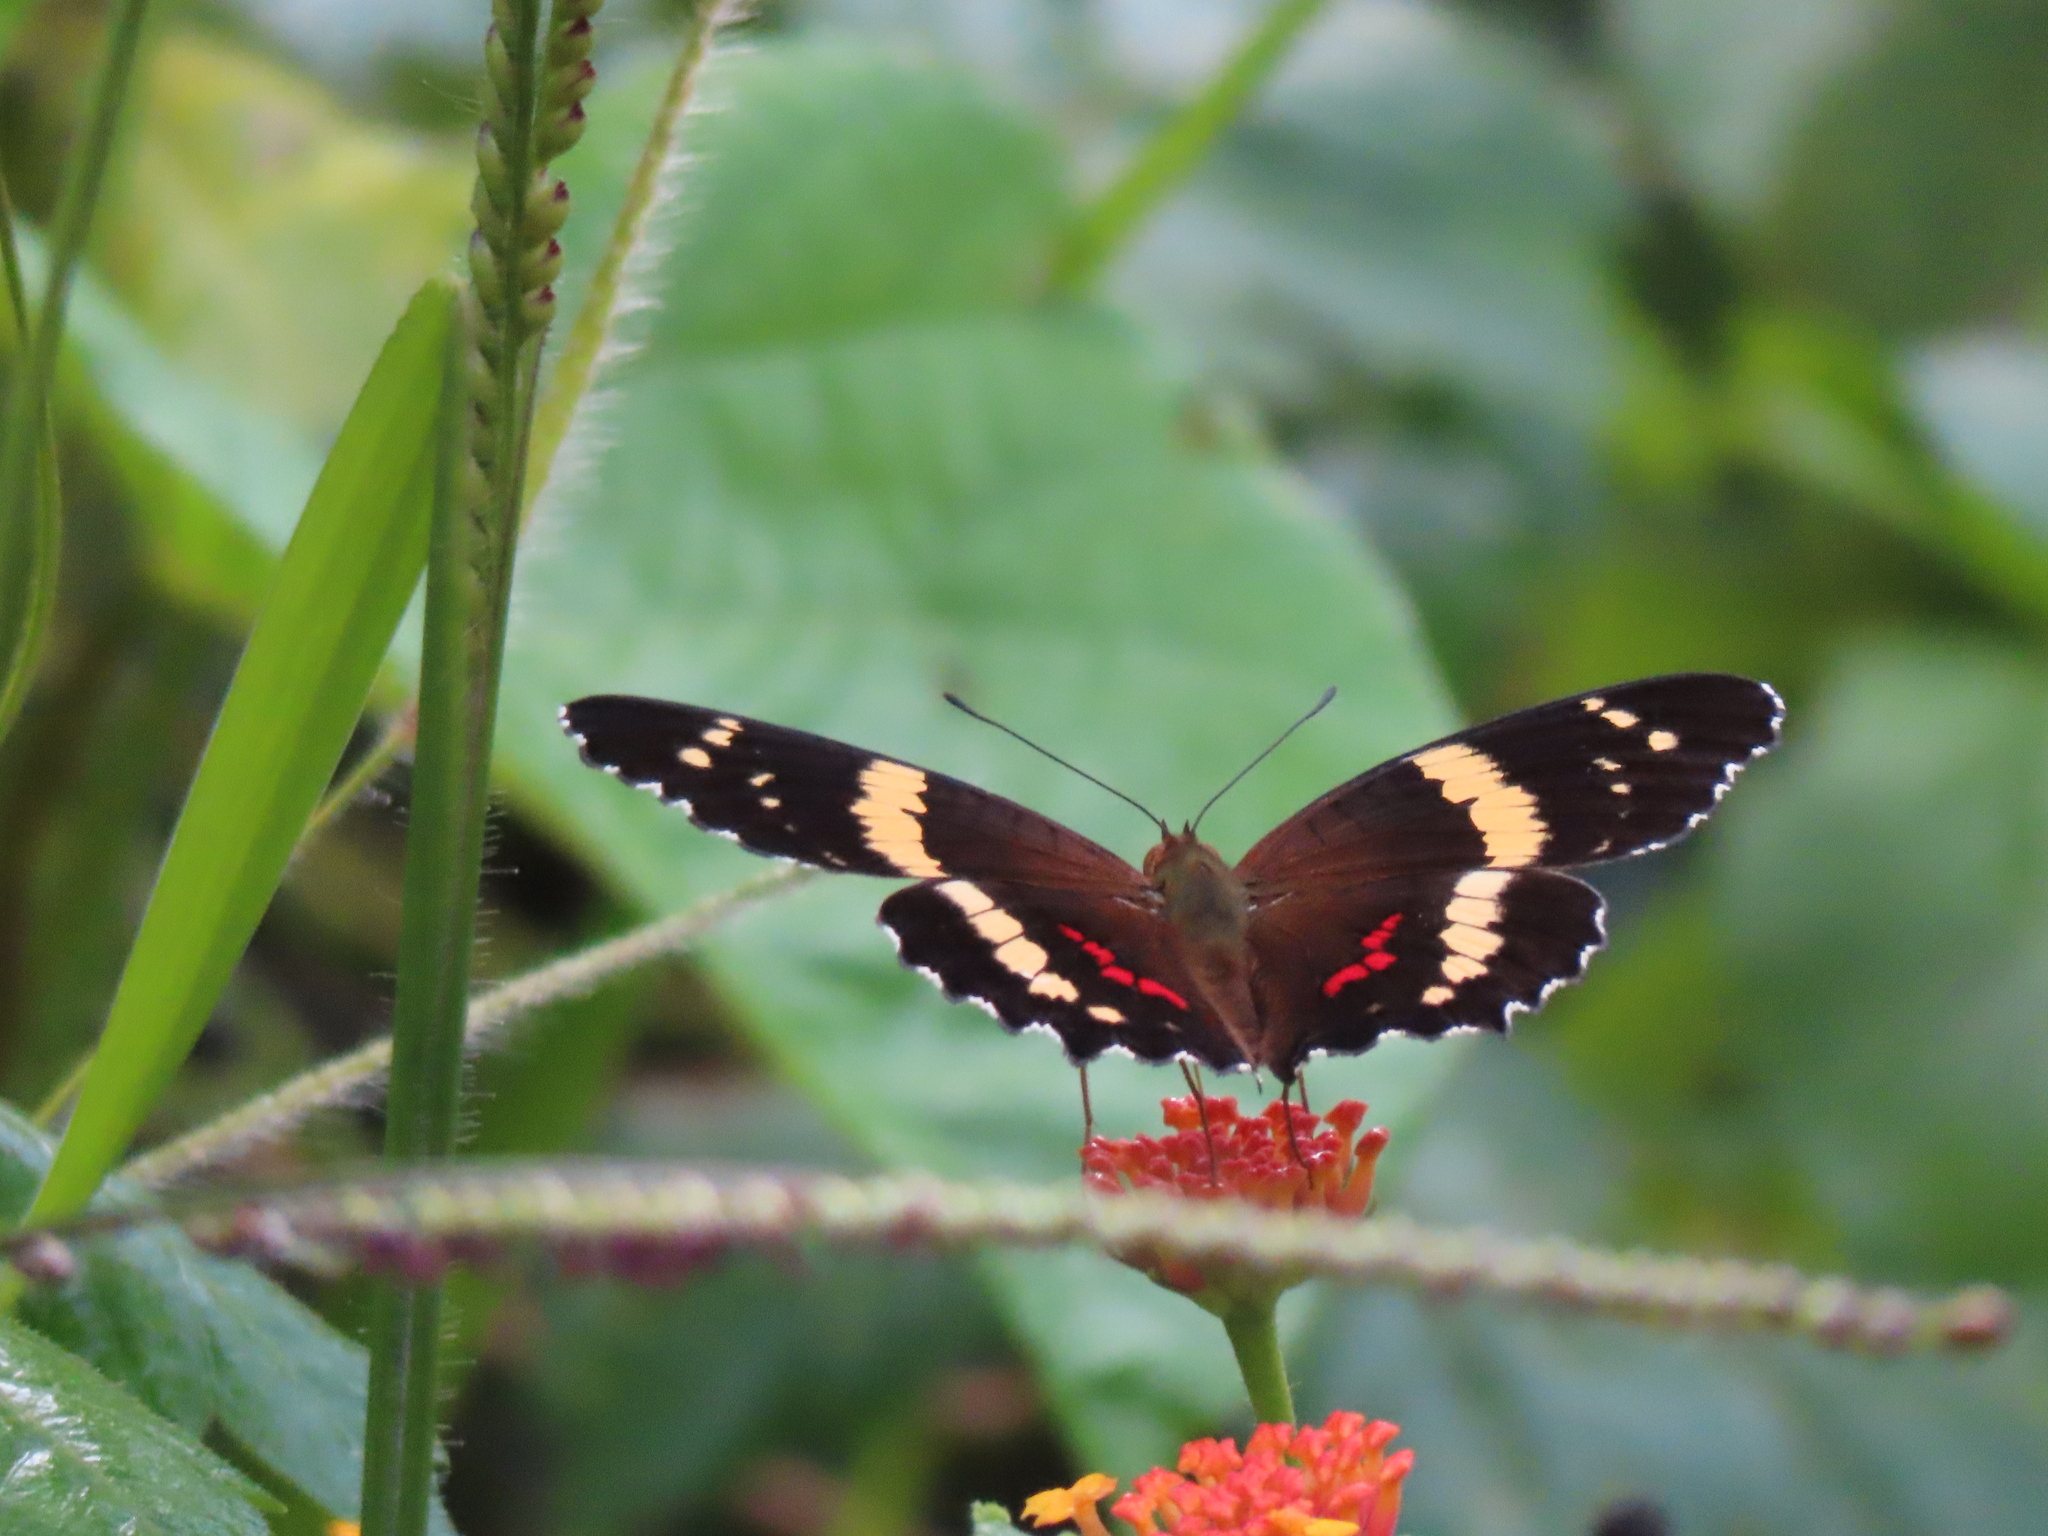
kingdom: Animalia
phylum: Arthropoda
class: Insecta
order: Lepidoptera
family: Nymphalidae
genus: Anartia
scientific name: Anartia fatima
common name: Banded peacock
